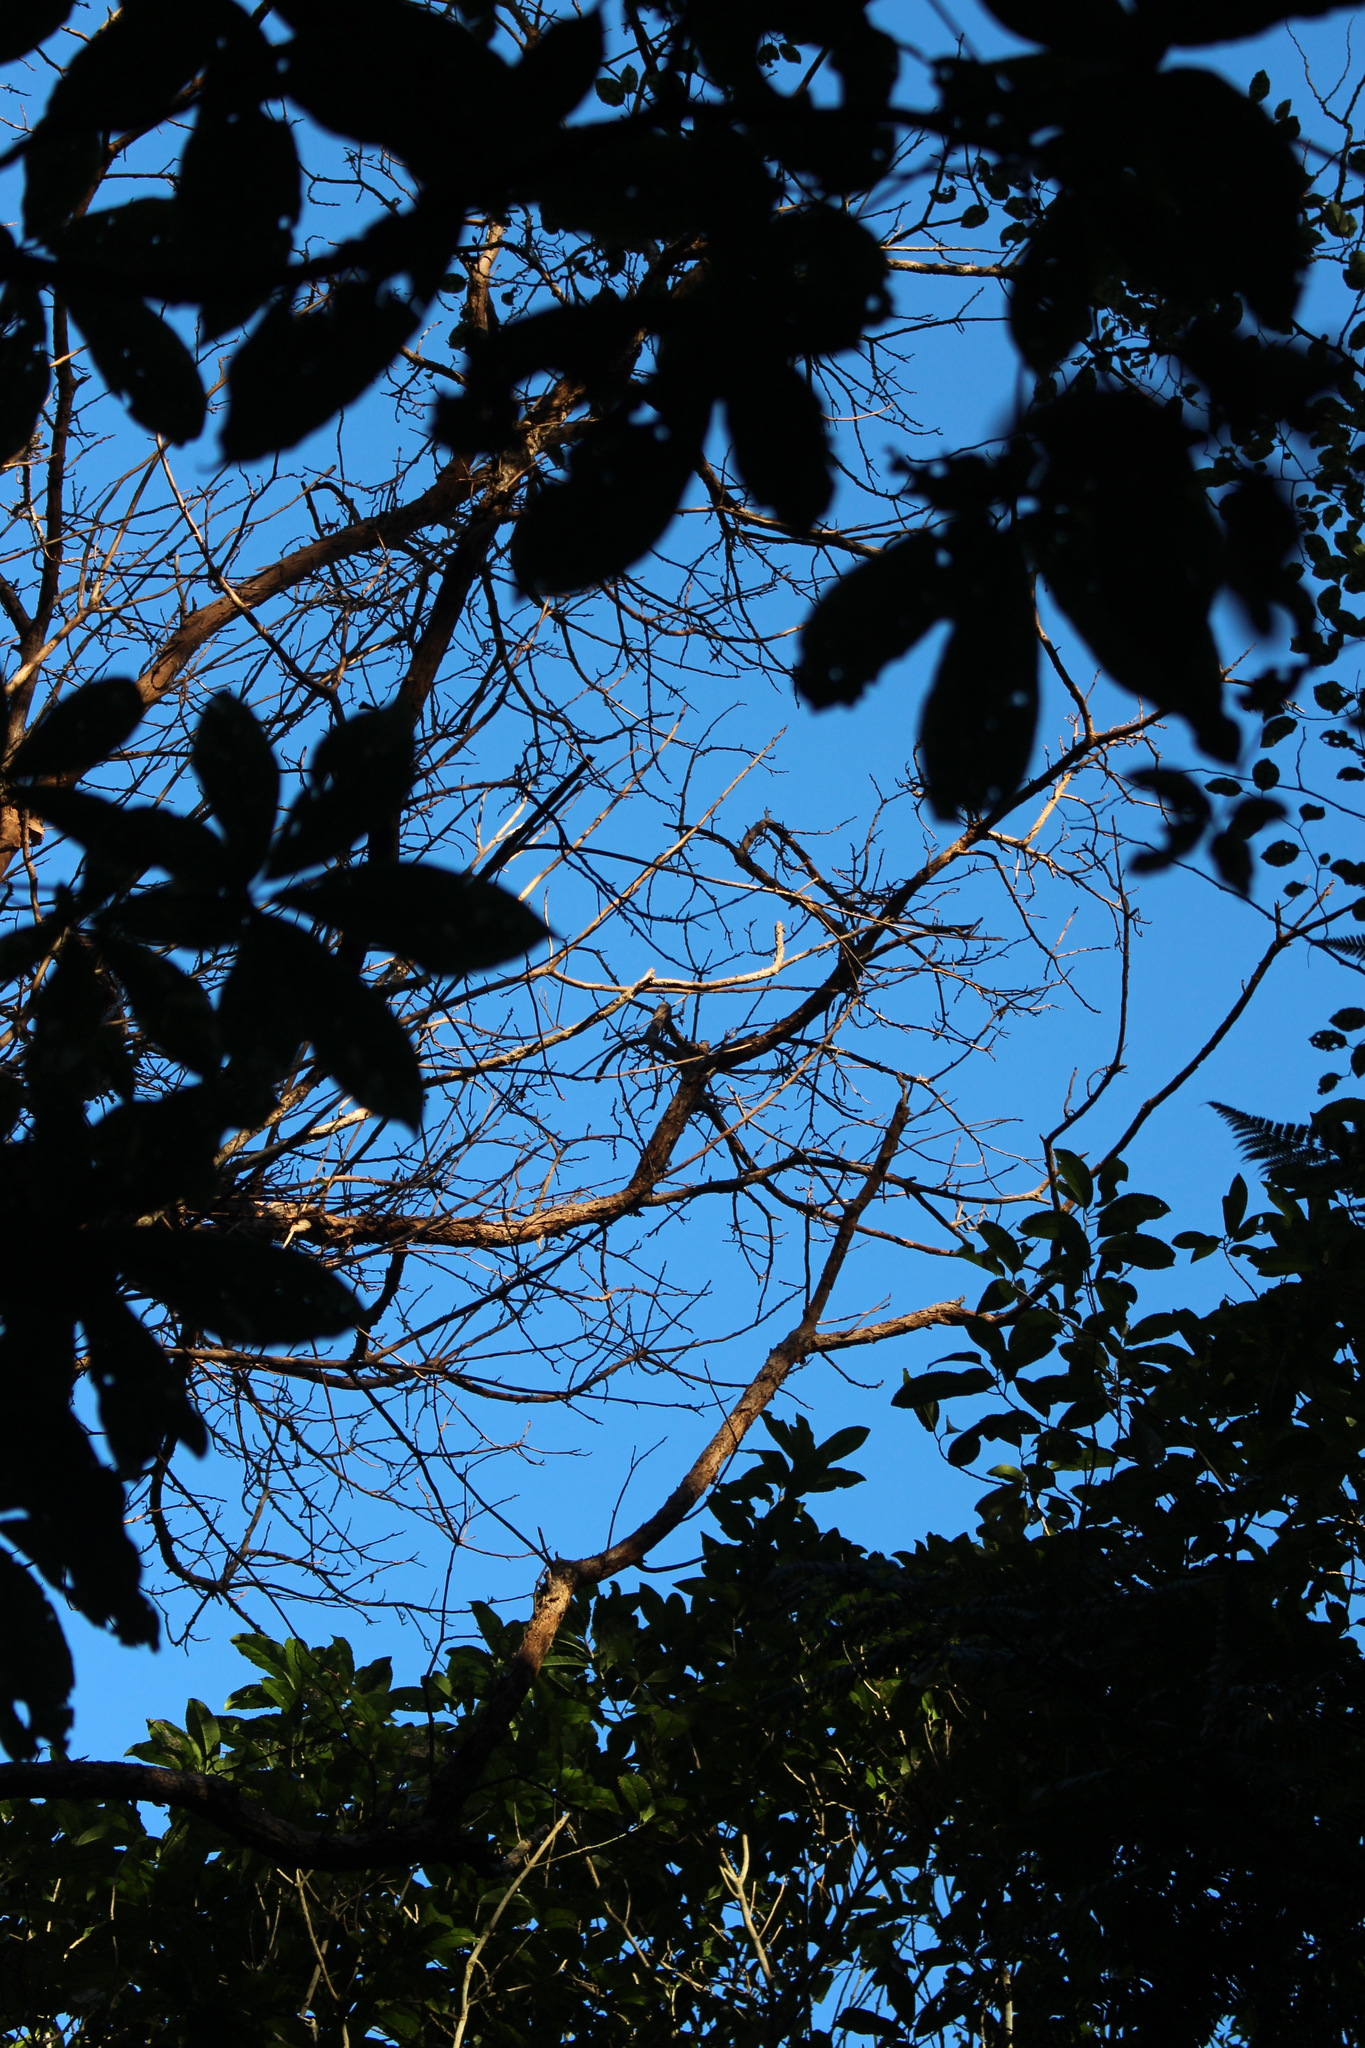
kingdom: Plantae
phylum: Tracheophyta
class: Magnoliopsida
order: Myrtales
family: Onagraceae
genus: Fuchsia
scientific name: Fuchsia excorticata
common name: Tree fuchsia
